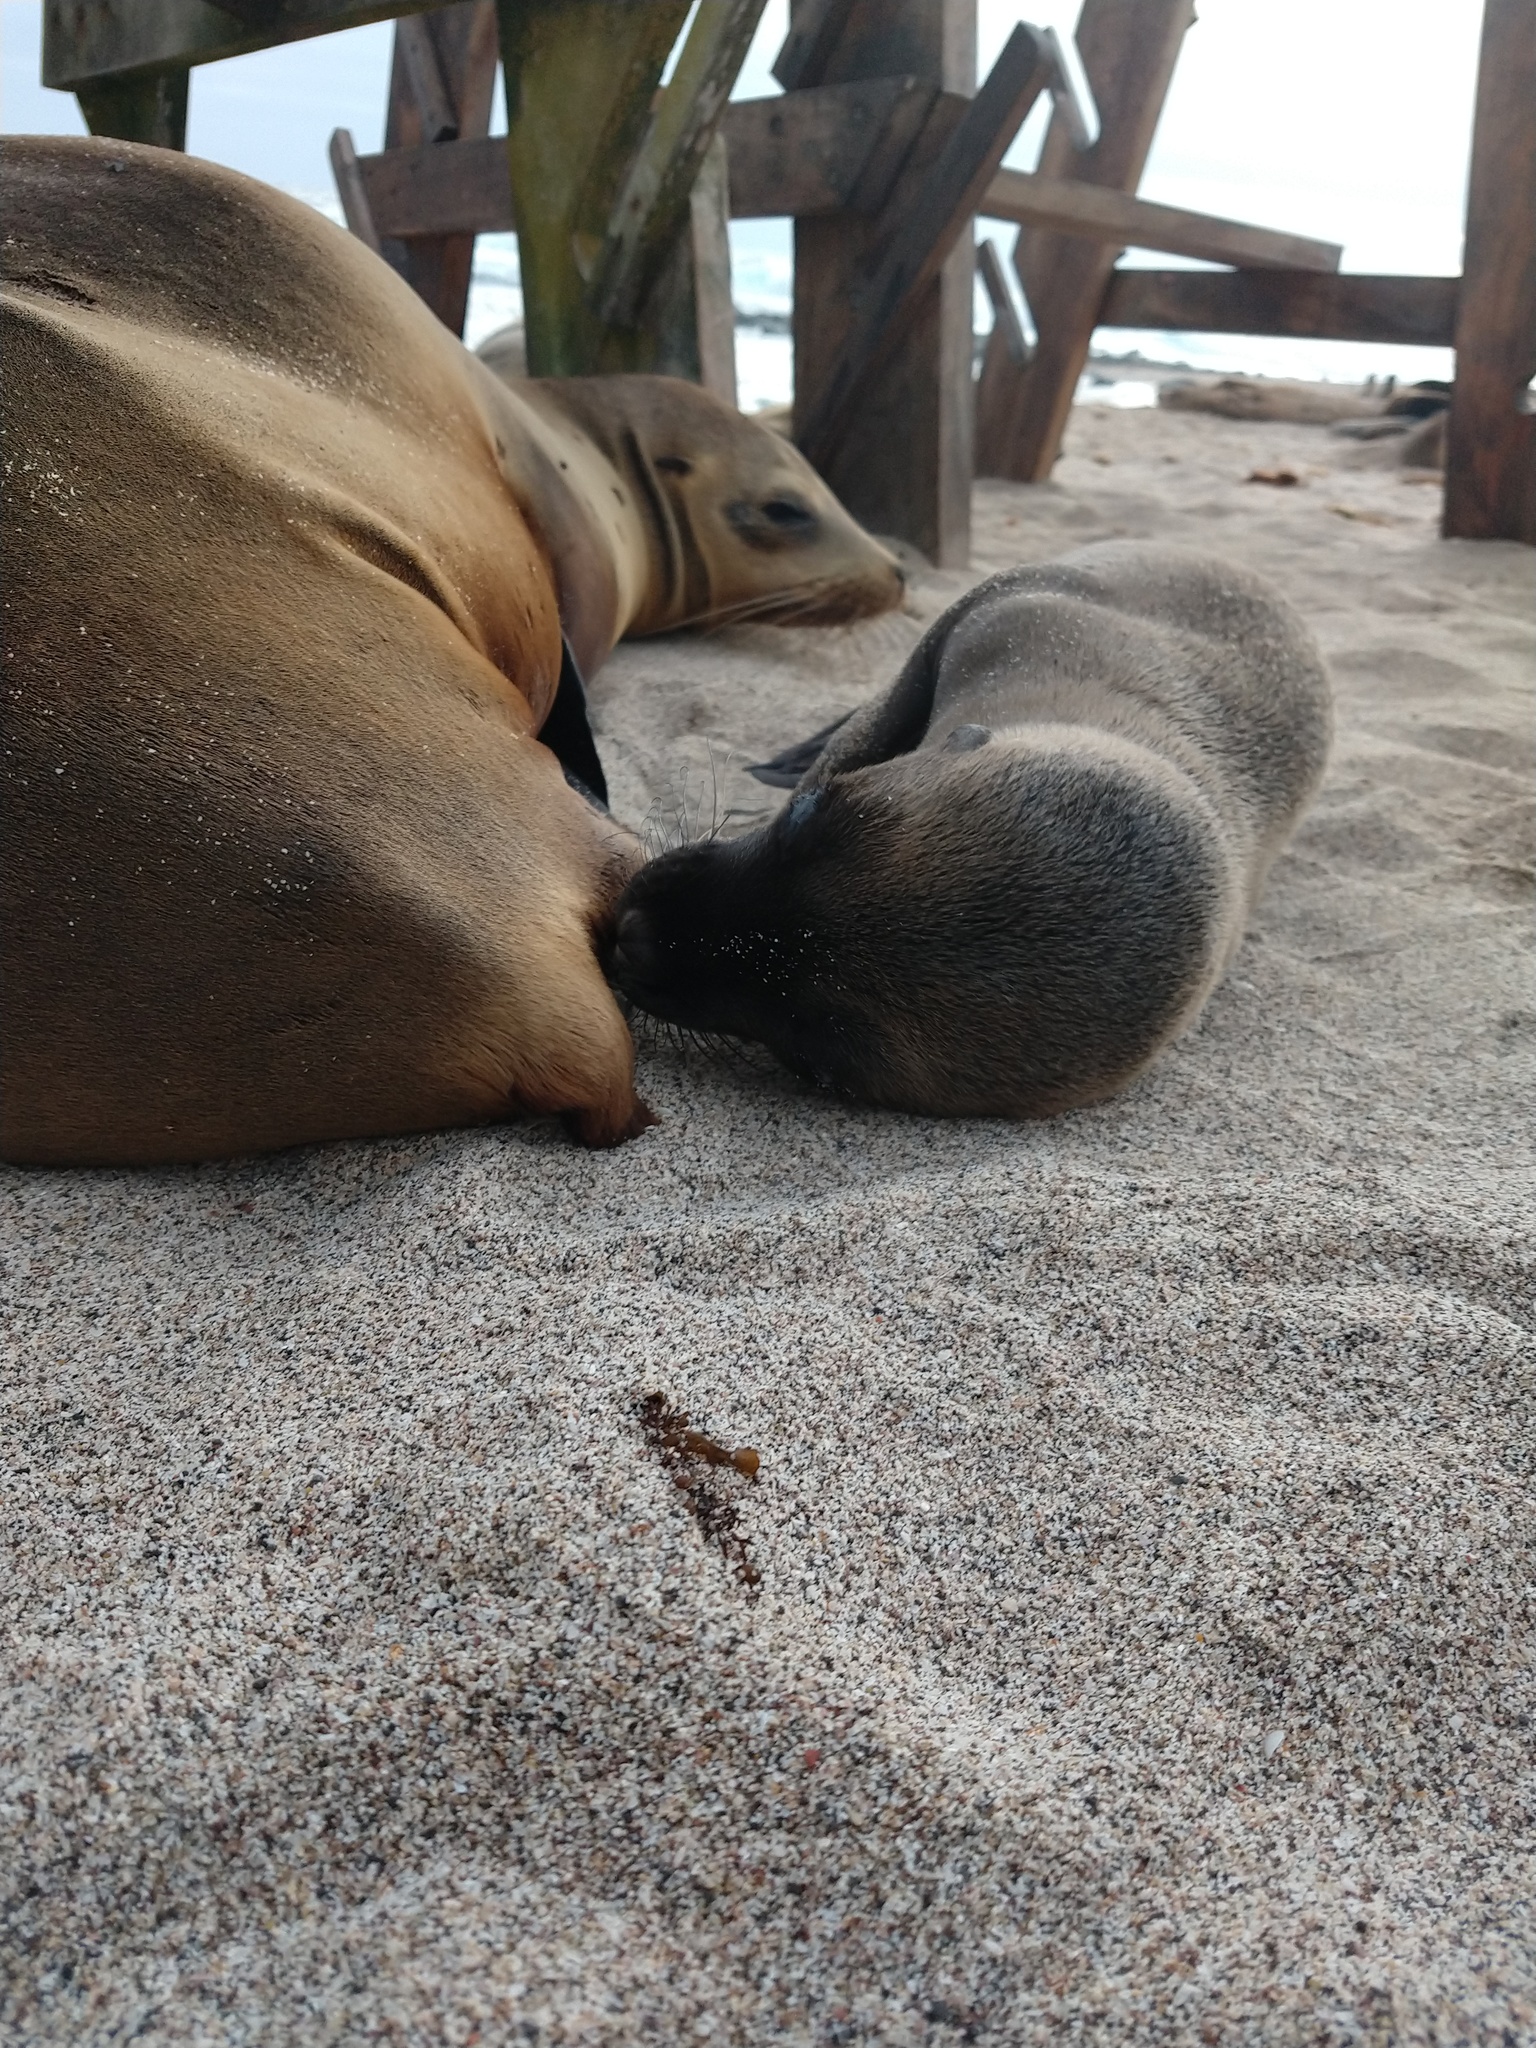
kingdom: Animalia
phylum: Chordata
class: Mammalia
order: Carnivora
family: Otariidae
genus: Zalophus
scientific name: Zalophus wollebaeki
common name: Galapagos sea lion
